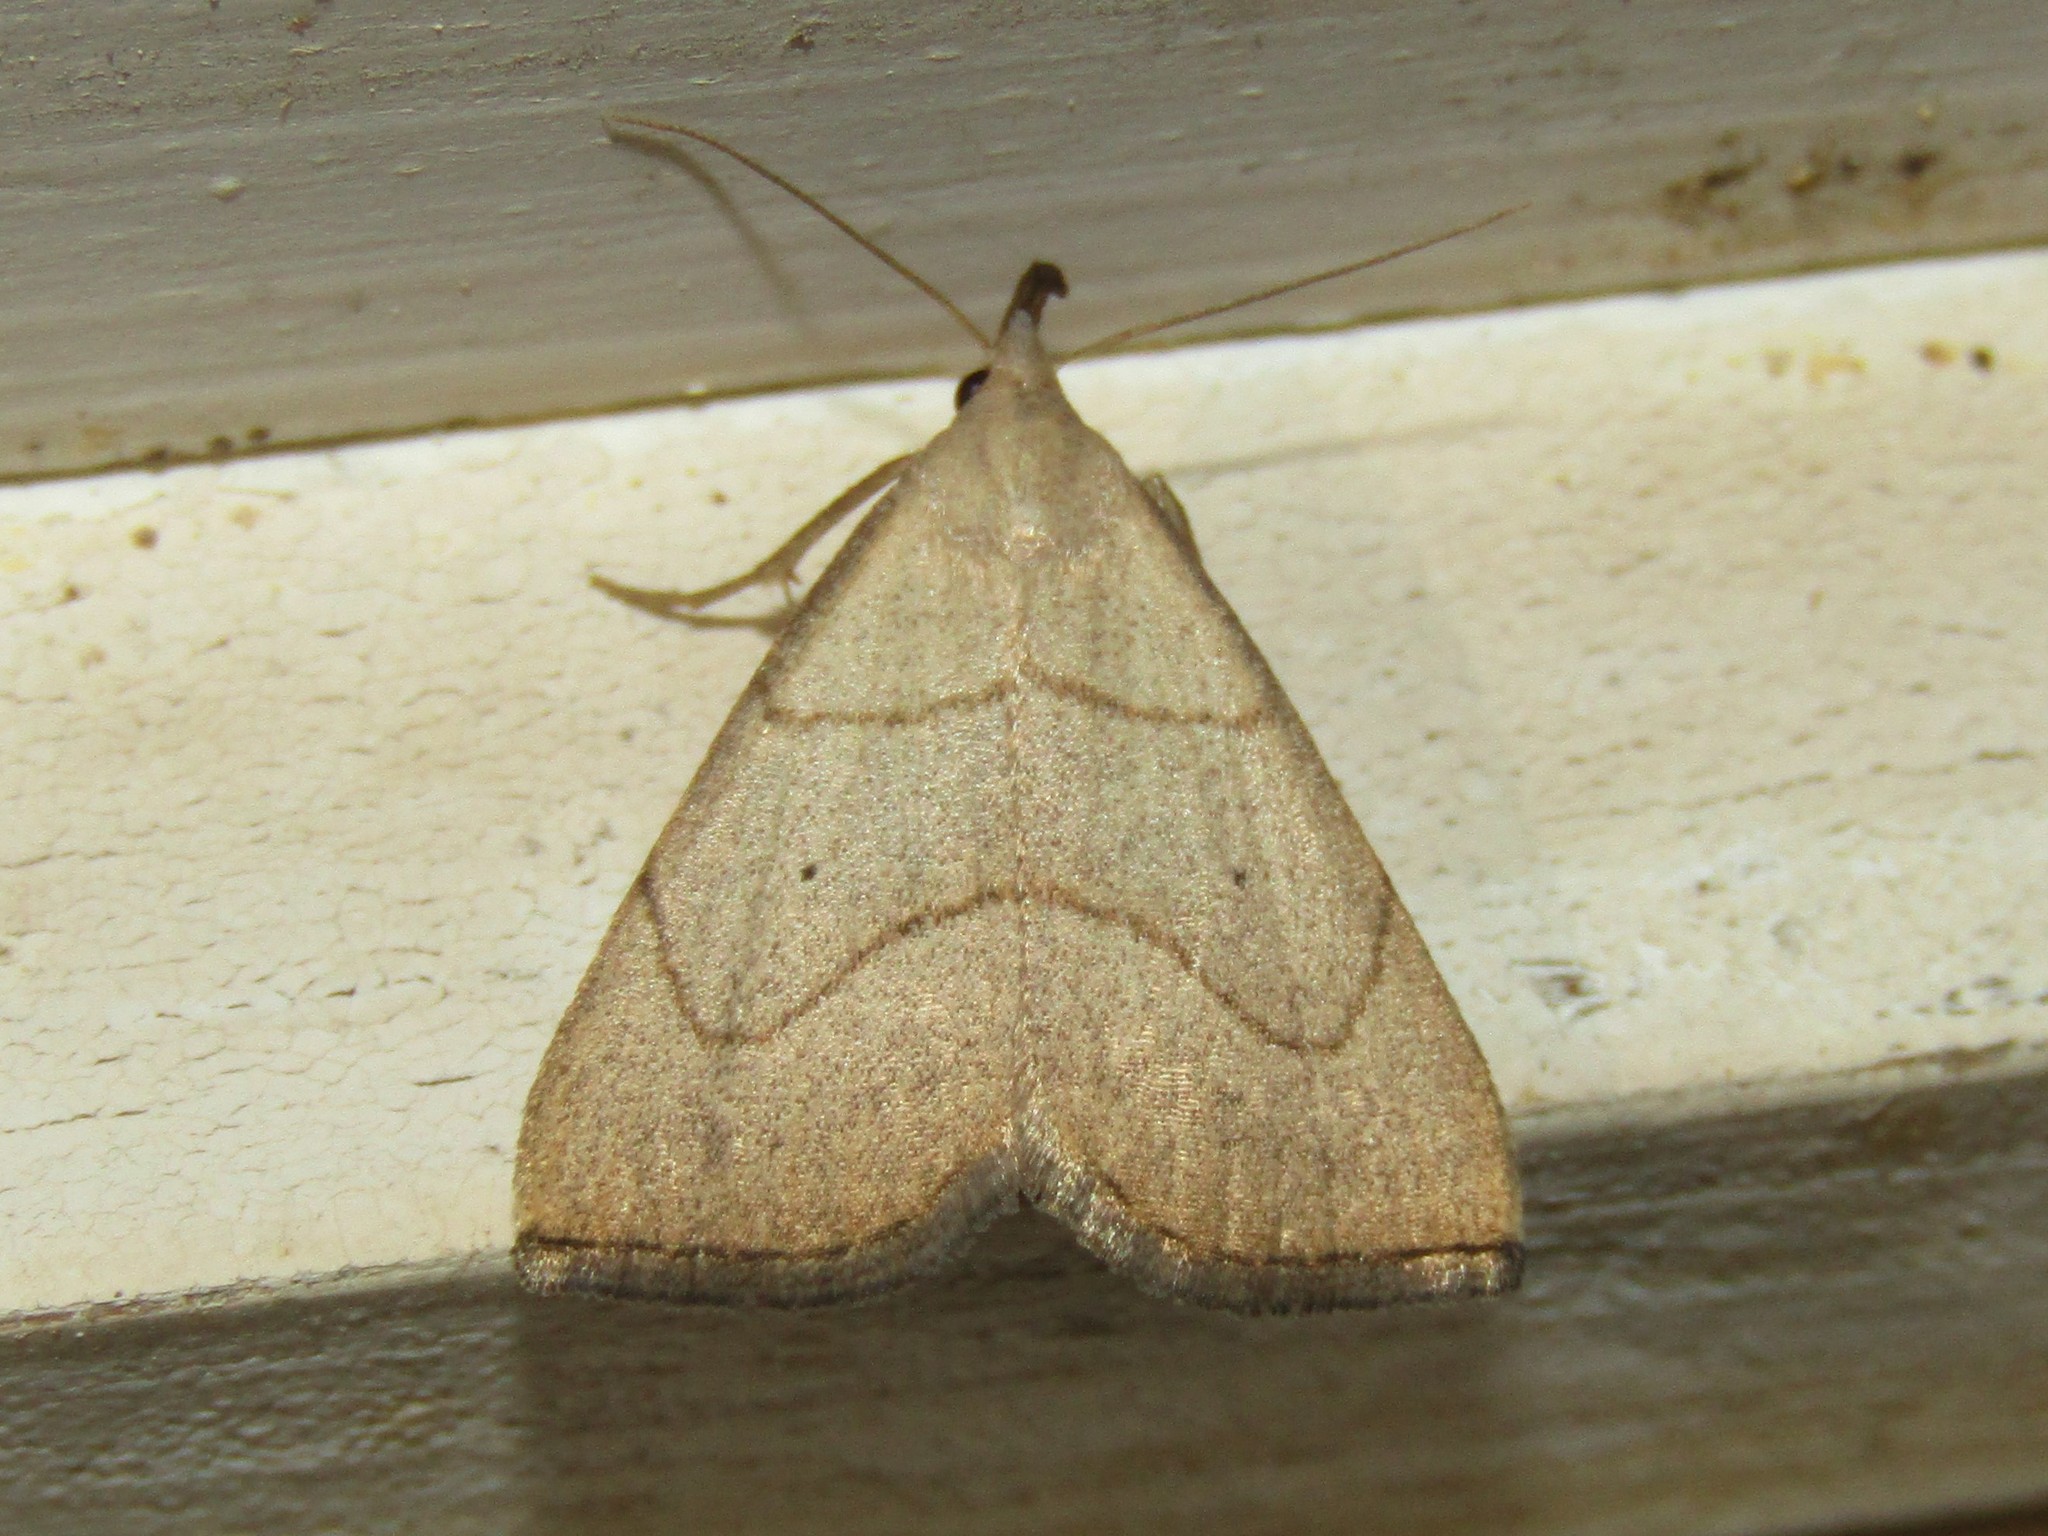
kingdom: Animalia
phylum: Arthropoda
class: Insecta
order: Lepidoptera
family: Erebidae
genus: Macrochilo
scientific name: Macrochilo litophora
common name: Brown-lined owlet
